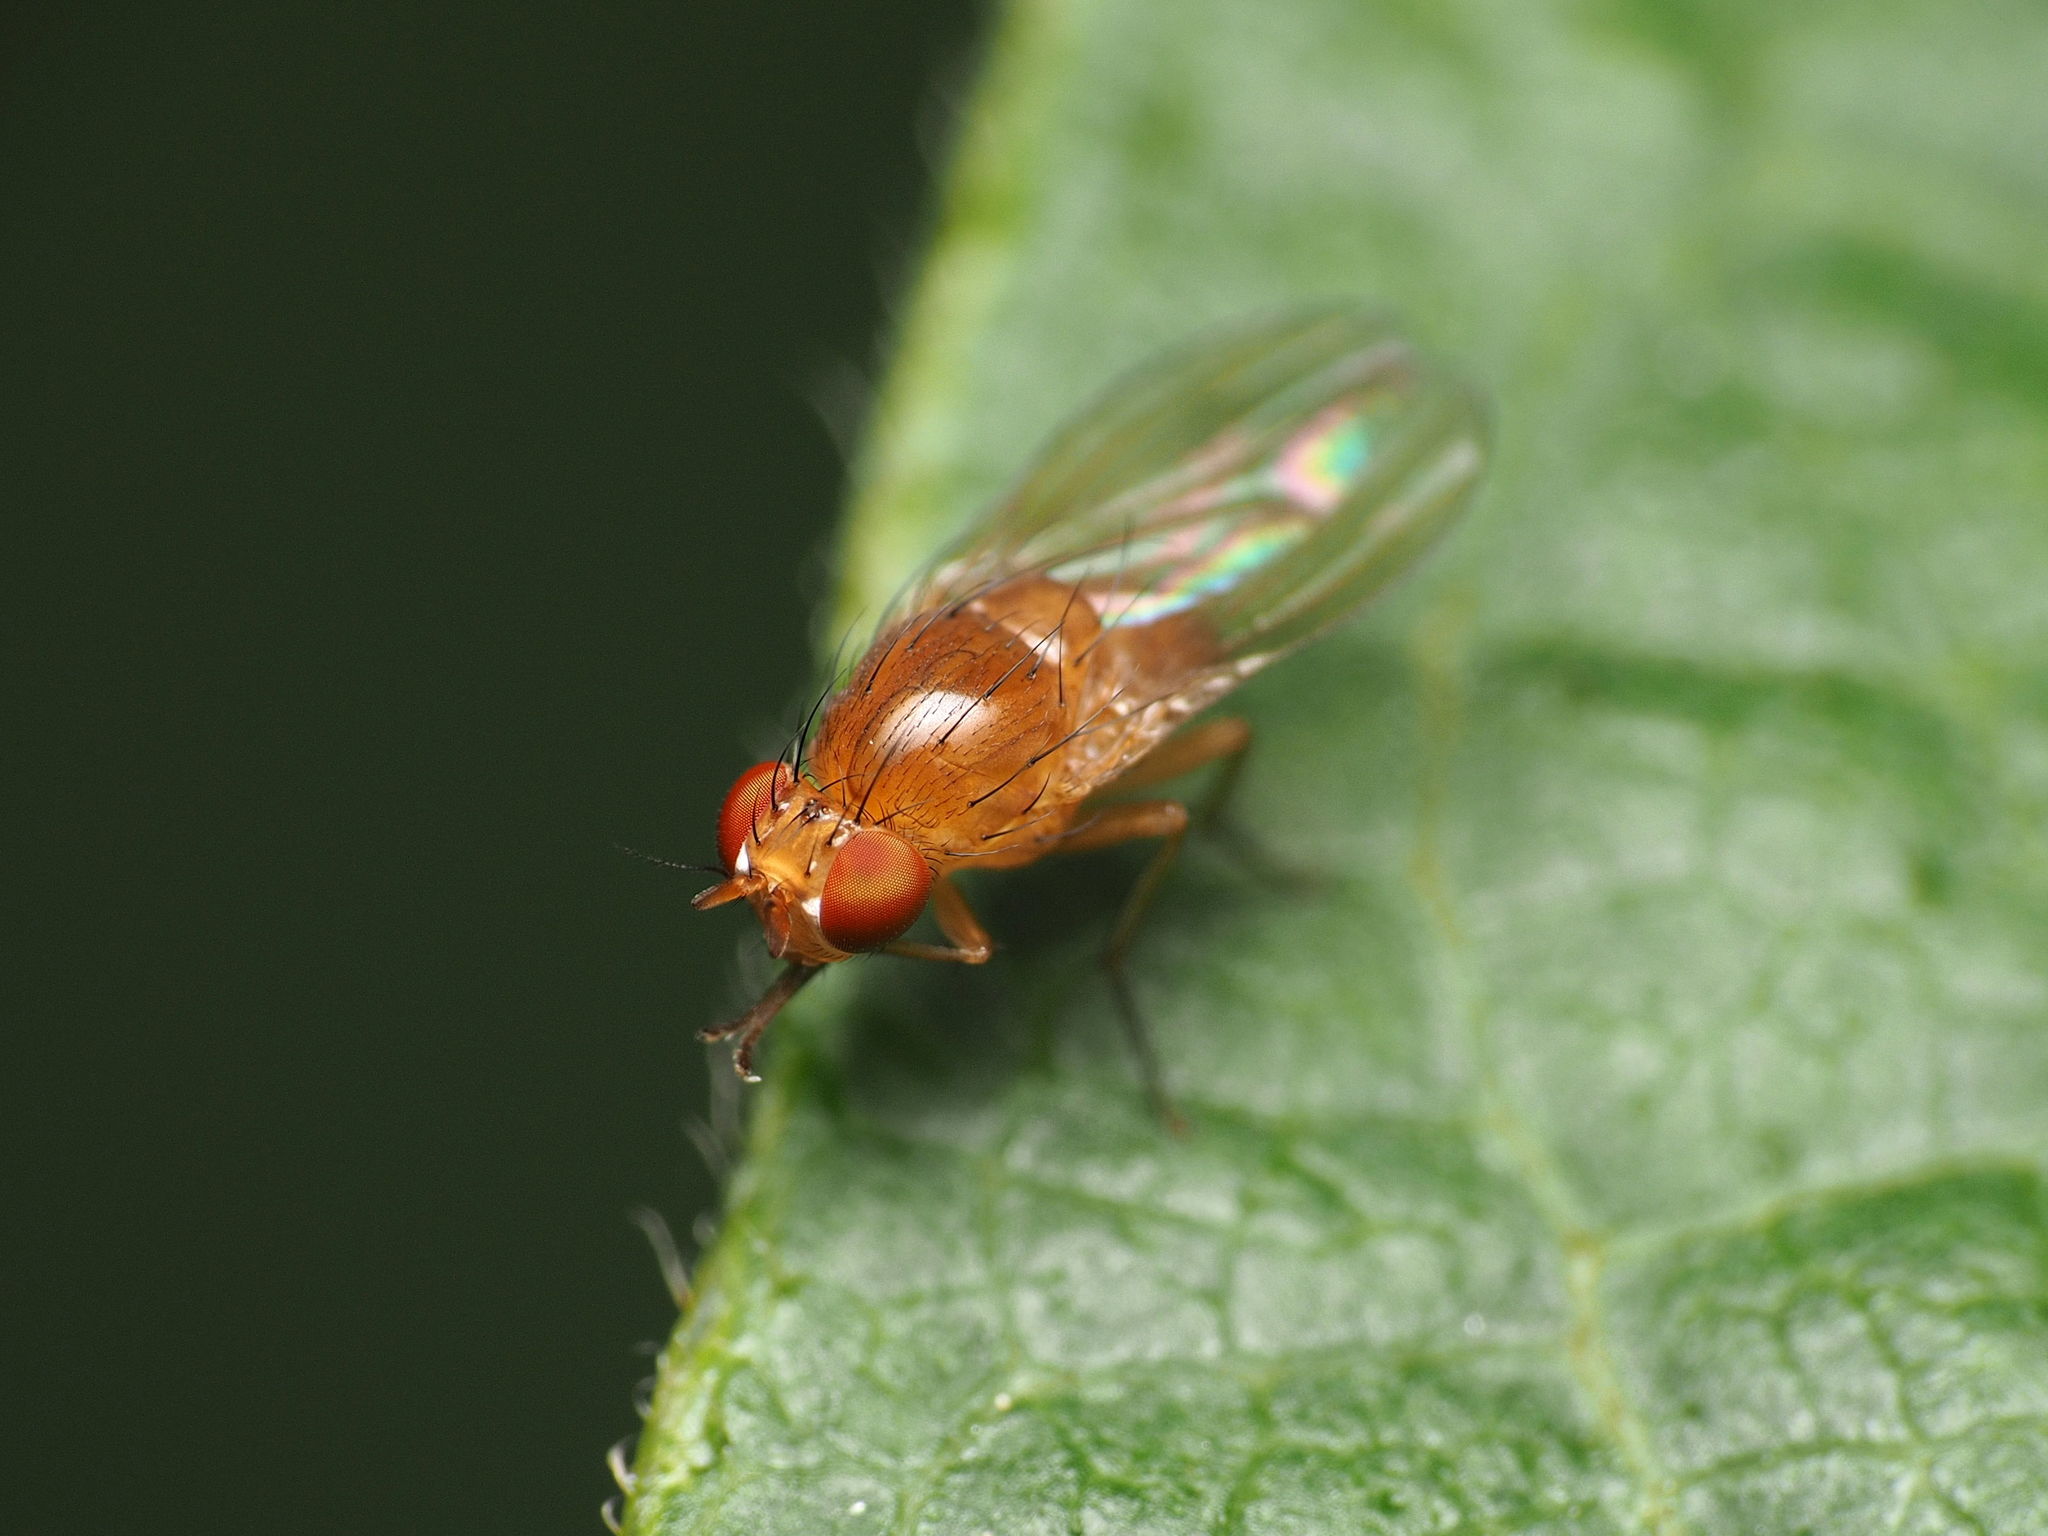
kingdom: Animalia
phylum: Arthropoda
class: Insecta
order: Diptera
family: Lauxaniidae
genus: Homoneura
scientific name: Homoneura unguiculata
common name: Beach fly
